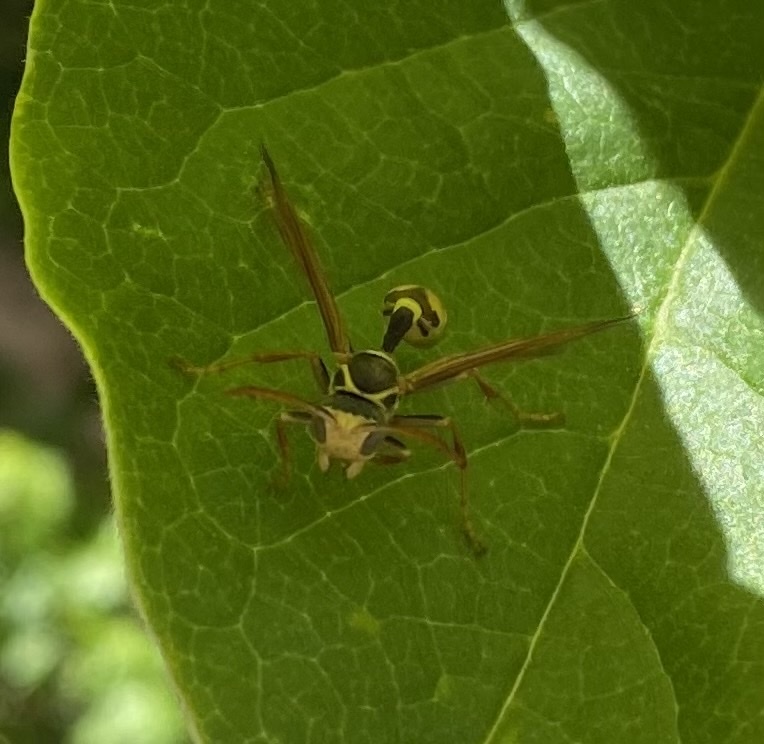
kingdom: Animalia
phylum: Arthropoda
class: Insecta
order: Hymenoptera
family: Vespidae
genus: Mischocyttarus
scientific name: Mischocyttarus flavitarsis
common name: Wasp
